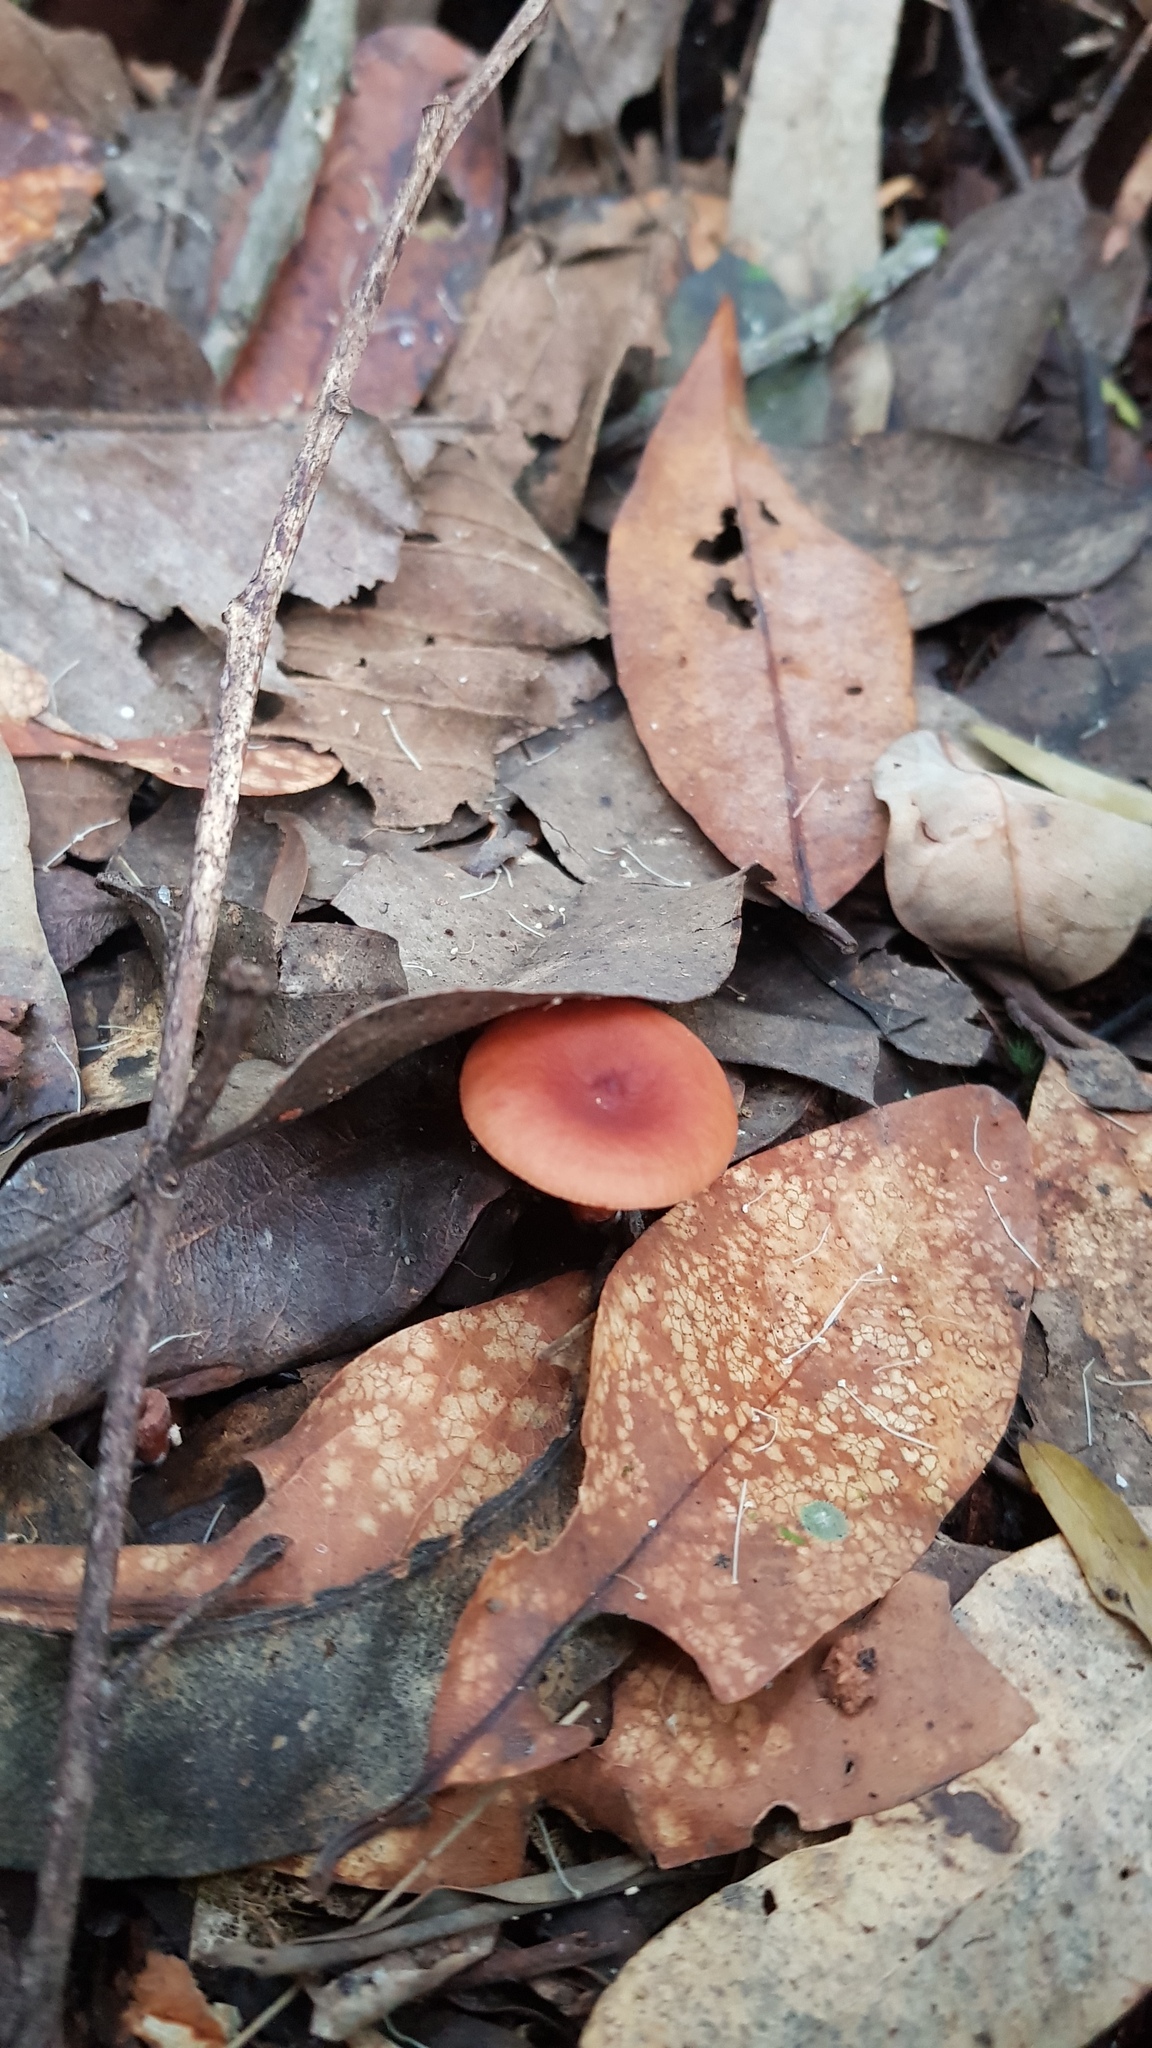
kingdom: Fungi
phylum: Basidiomycota
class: Agaricomycetes
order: Russulales
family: Russulaceae
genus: Lactarius
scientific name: Lactarius eucalypti
